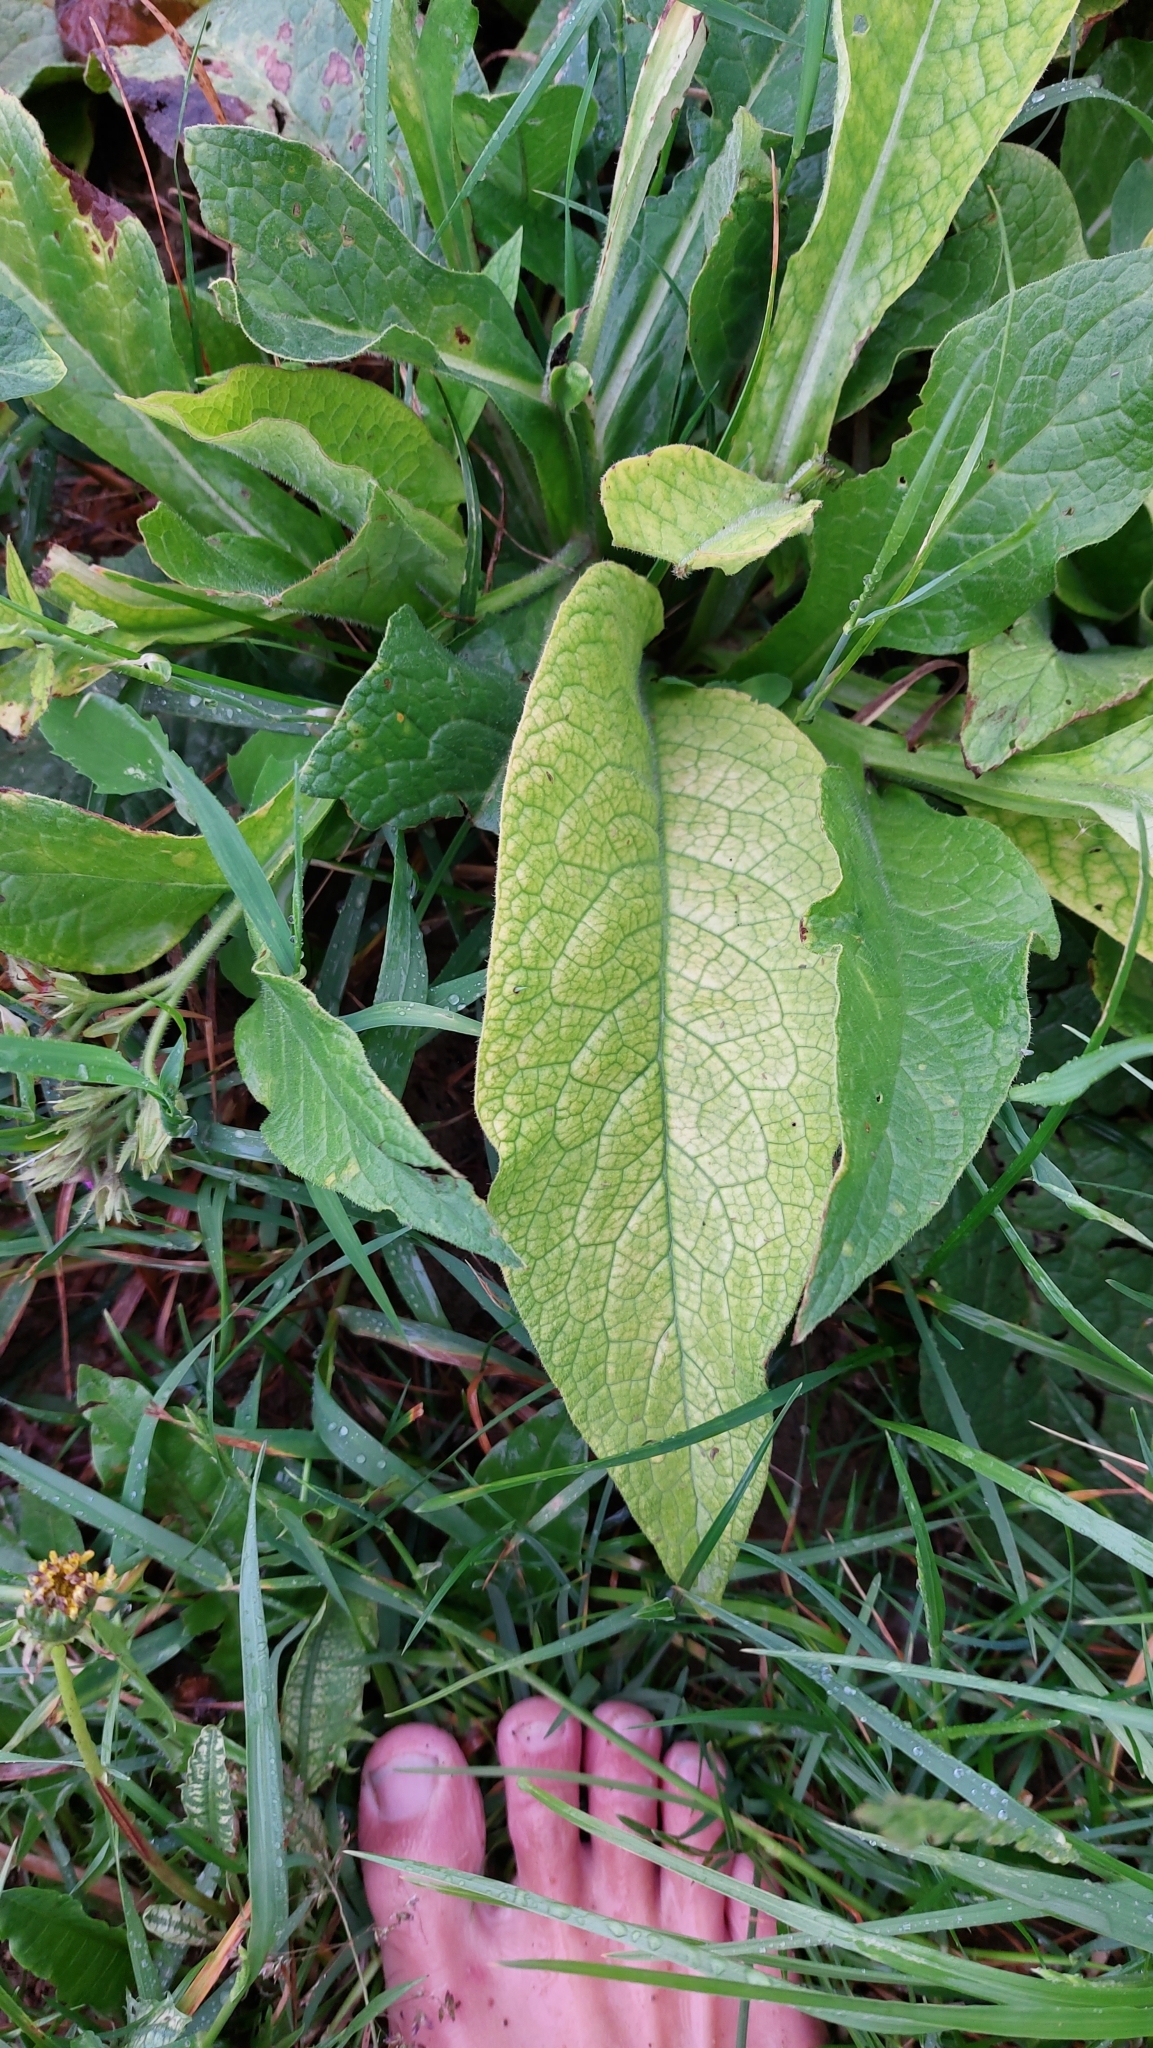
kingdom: Plantae
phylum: Tracheophyta
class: Magnoliopsida
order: Boraginales
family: Boraginaceae
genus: Symphytum
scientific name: Symphytum officinale
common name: Common comfrey
